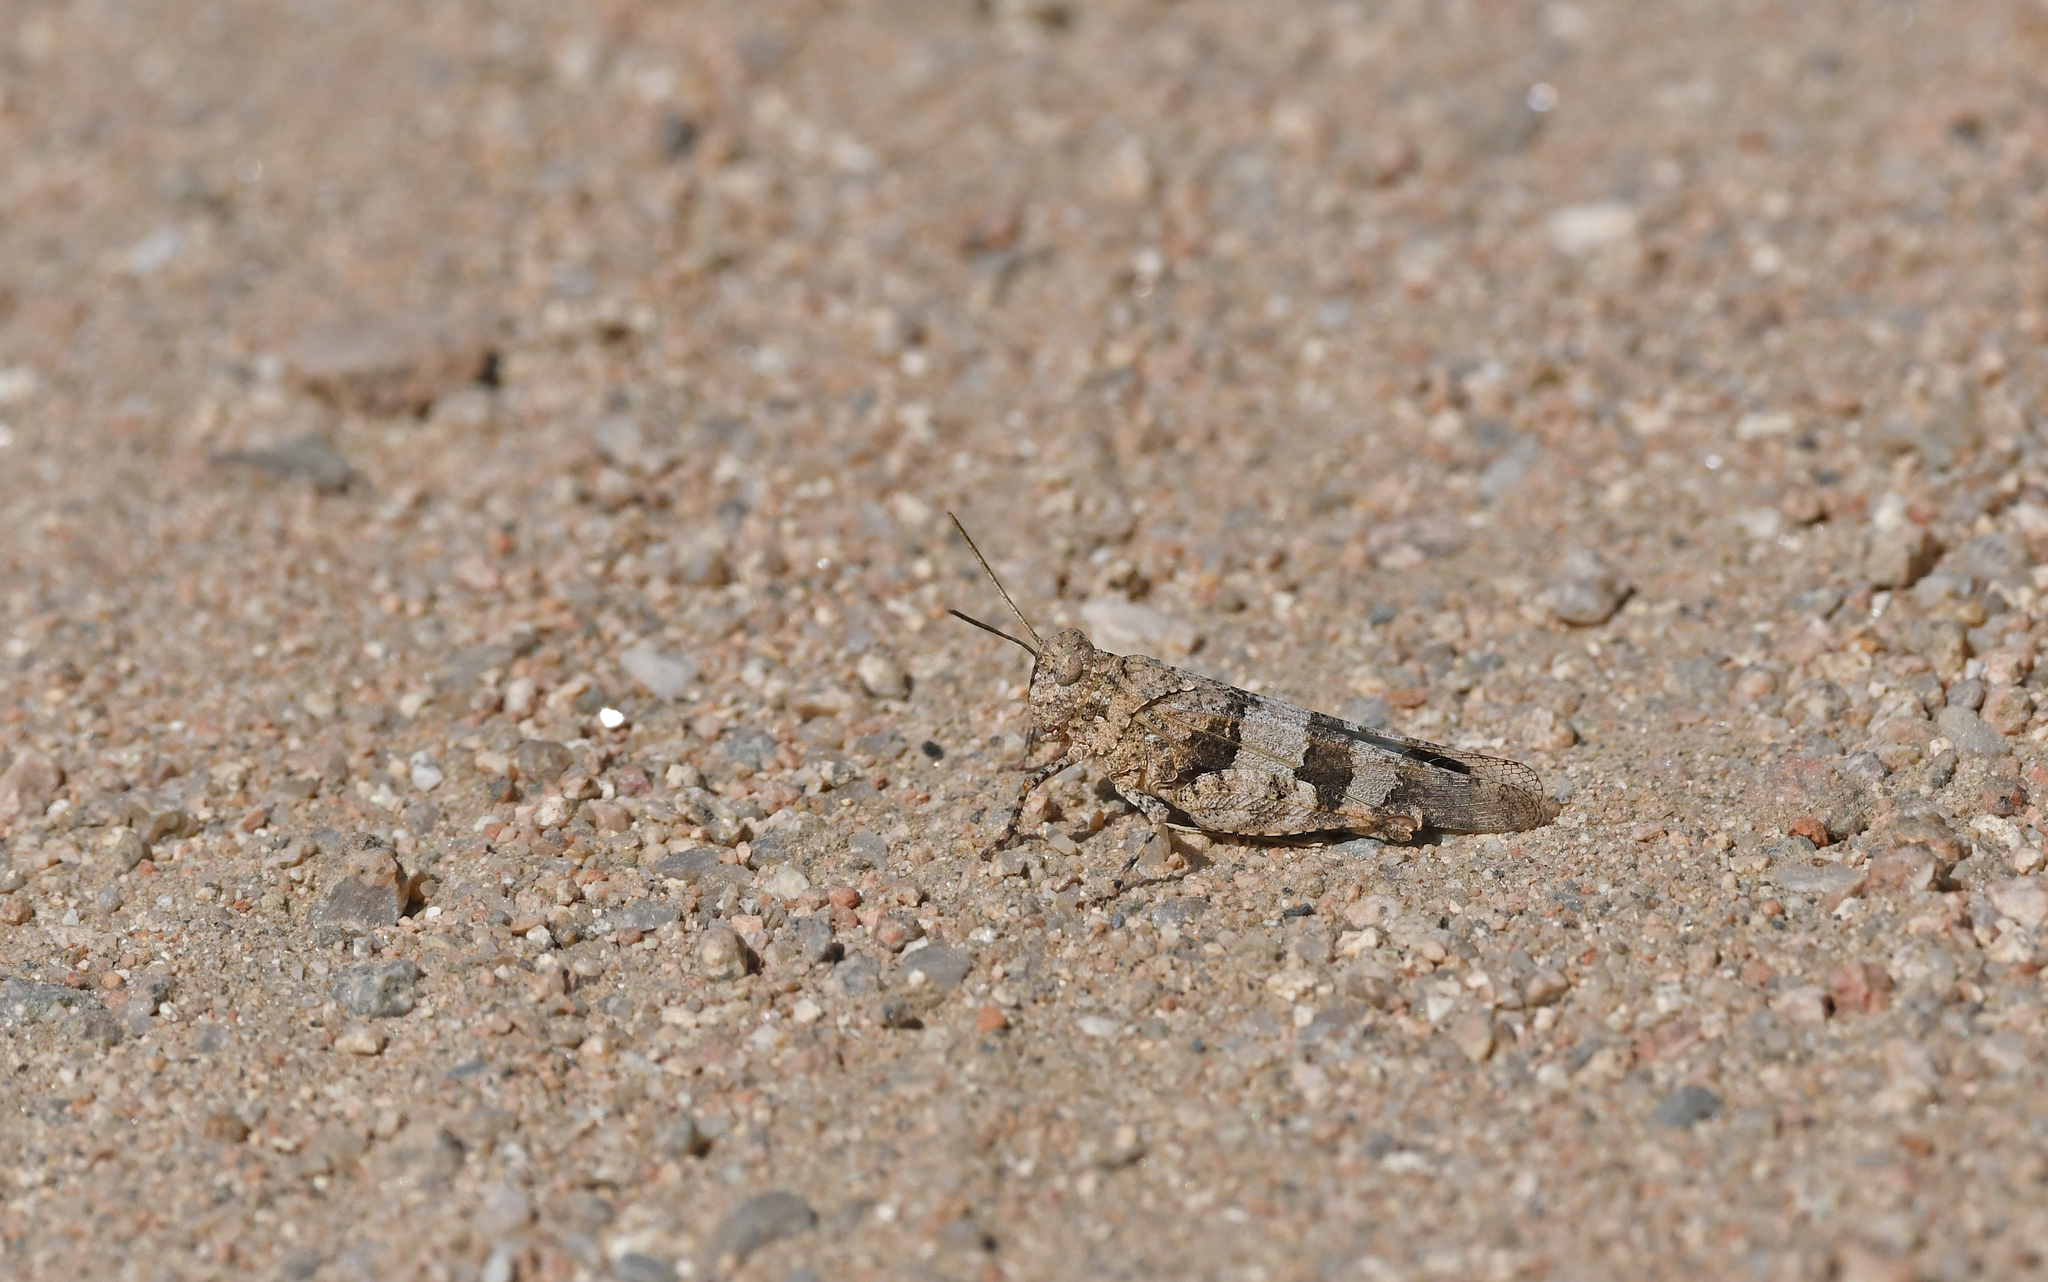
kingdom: Animalia
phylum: Arthropoda
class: Insecta
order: Orthoptera
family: Acrididae
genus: Oedipoda
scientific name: Oedipoda caerulescens
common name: Blue-winged grasshopper
